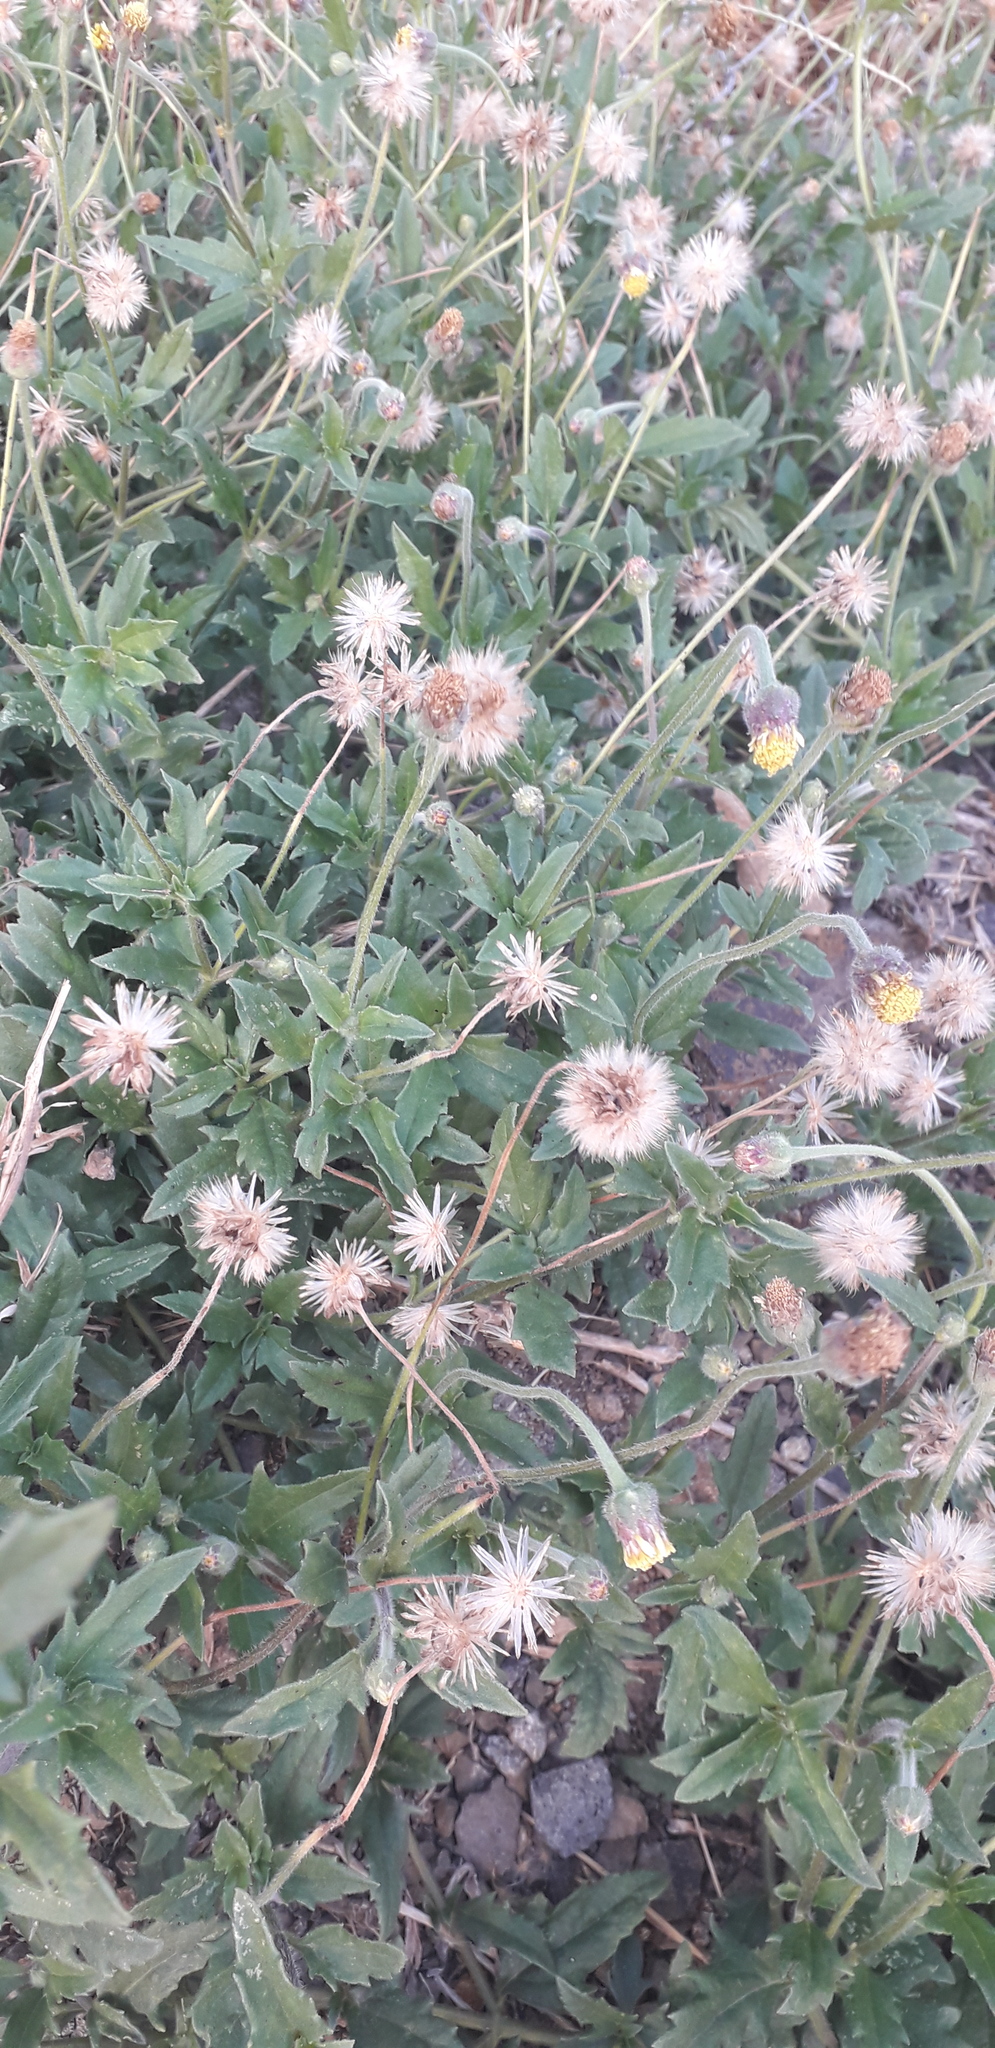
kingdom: Plantae
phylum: Tracheophyta
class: Magnoliopsida
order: Asterales
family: Asteraceae
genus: Tridax
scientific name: Tridax procumbens
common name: Coatbuttons
